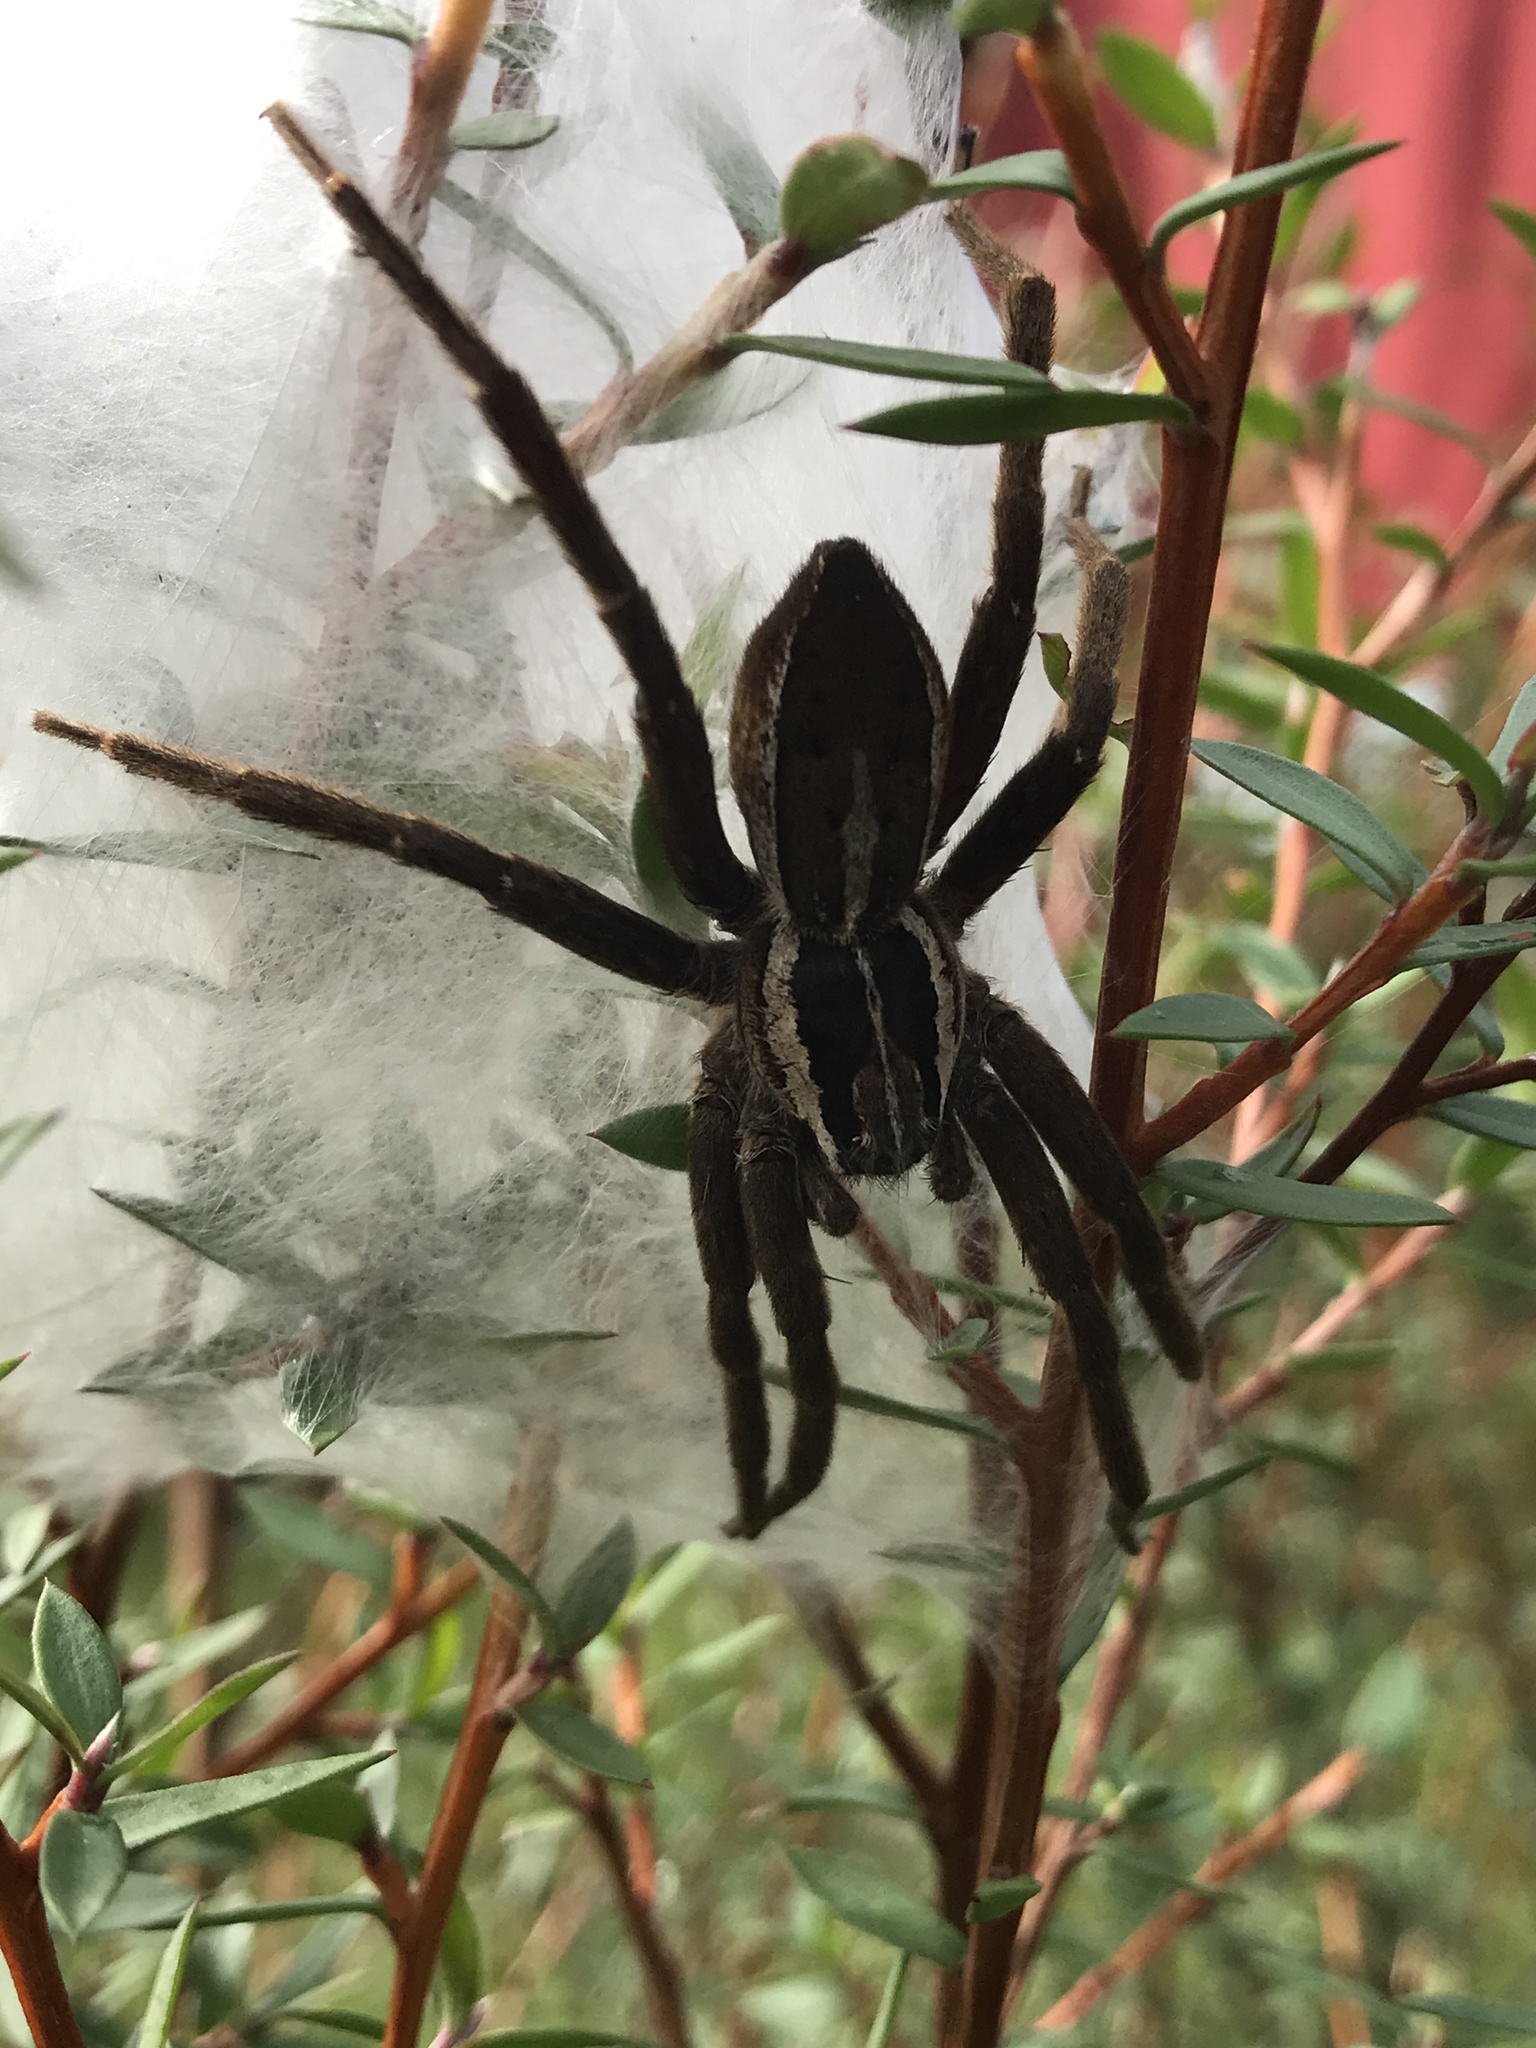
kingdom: Animalia
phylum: Arthropoda
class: Arachnida
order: Araneae
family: Pisauridae
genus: Dolomedes
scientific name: Dolomedes minor
